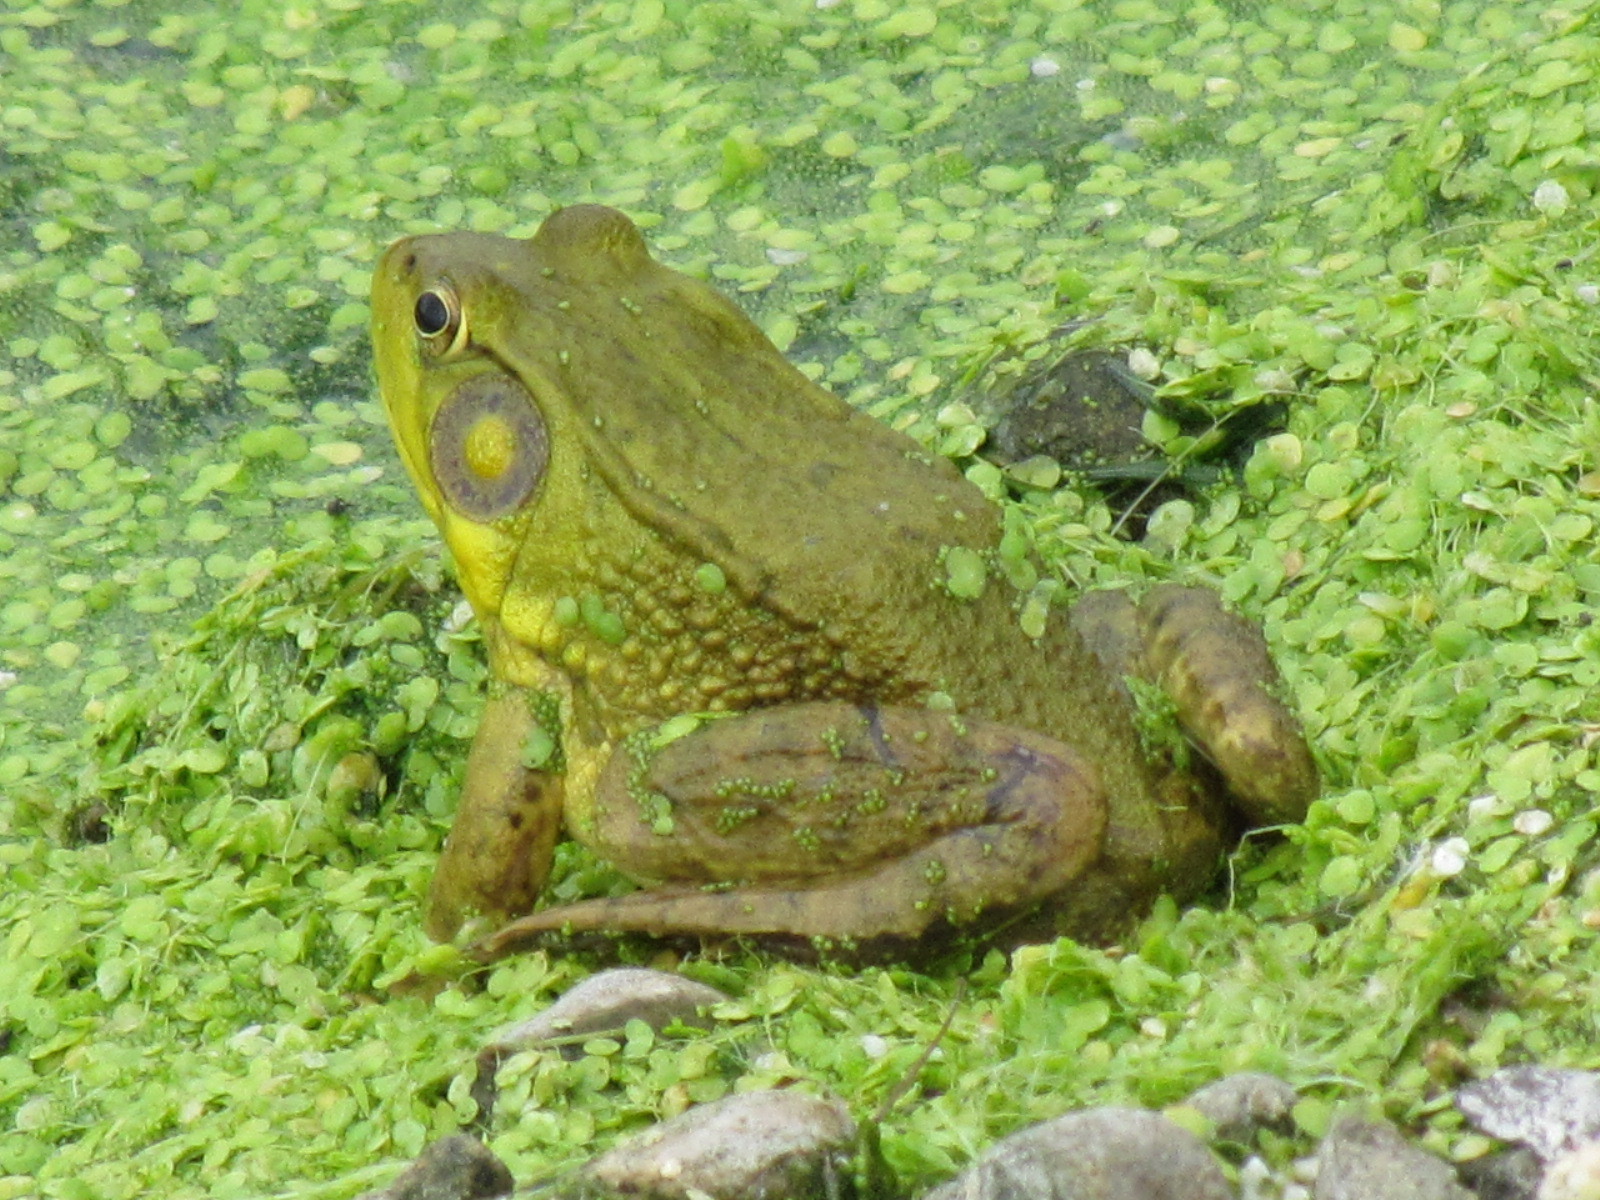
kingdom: Animalia
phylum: Chordata
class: Amphibia
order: Anura
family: Ranidae
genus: Lithobates
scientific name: Lithobates clamitans
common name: Green frog
